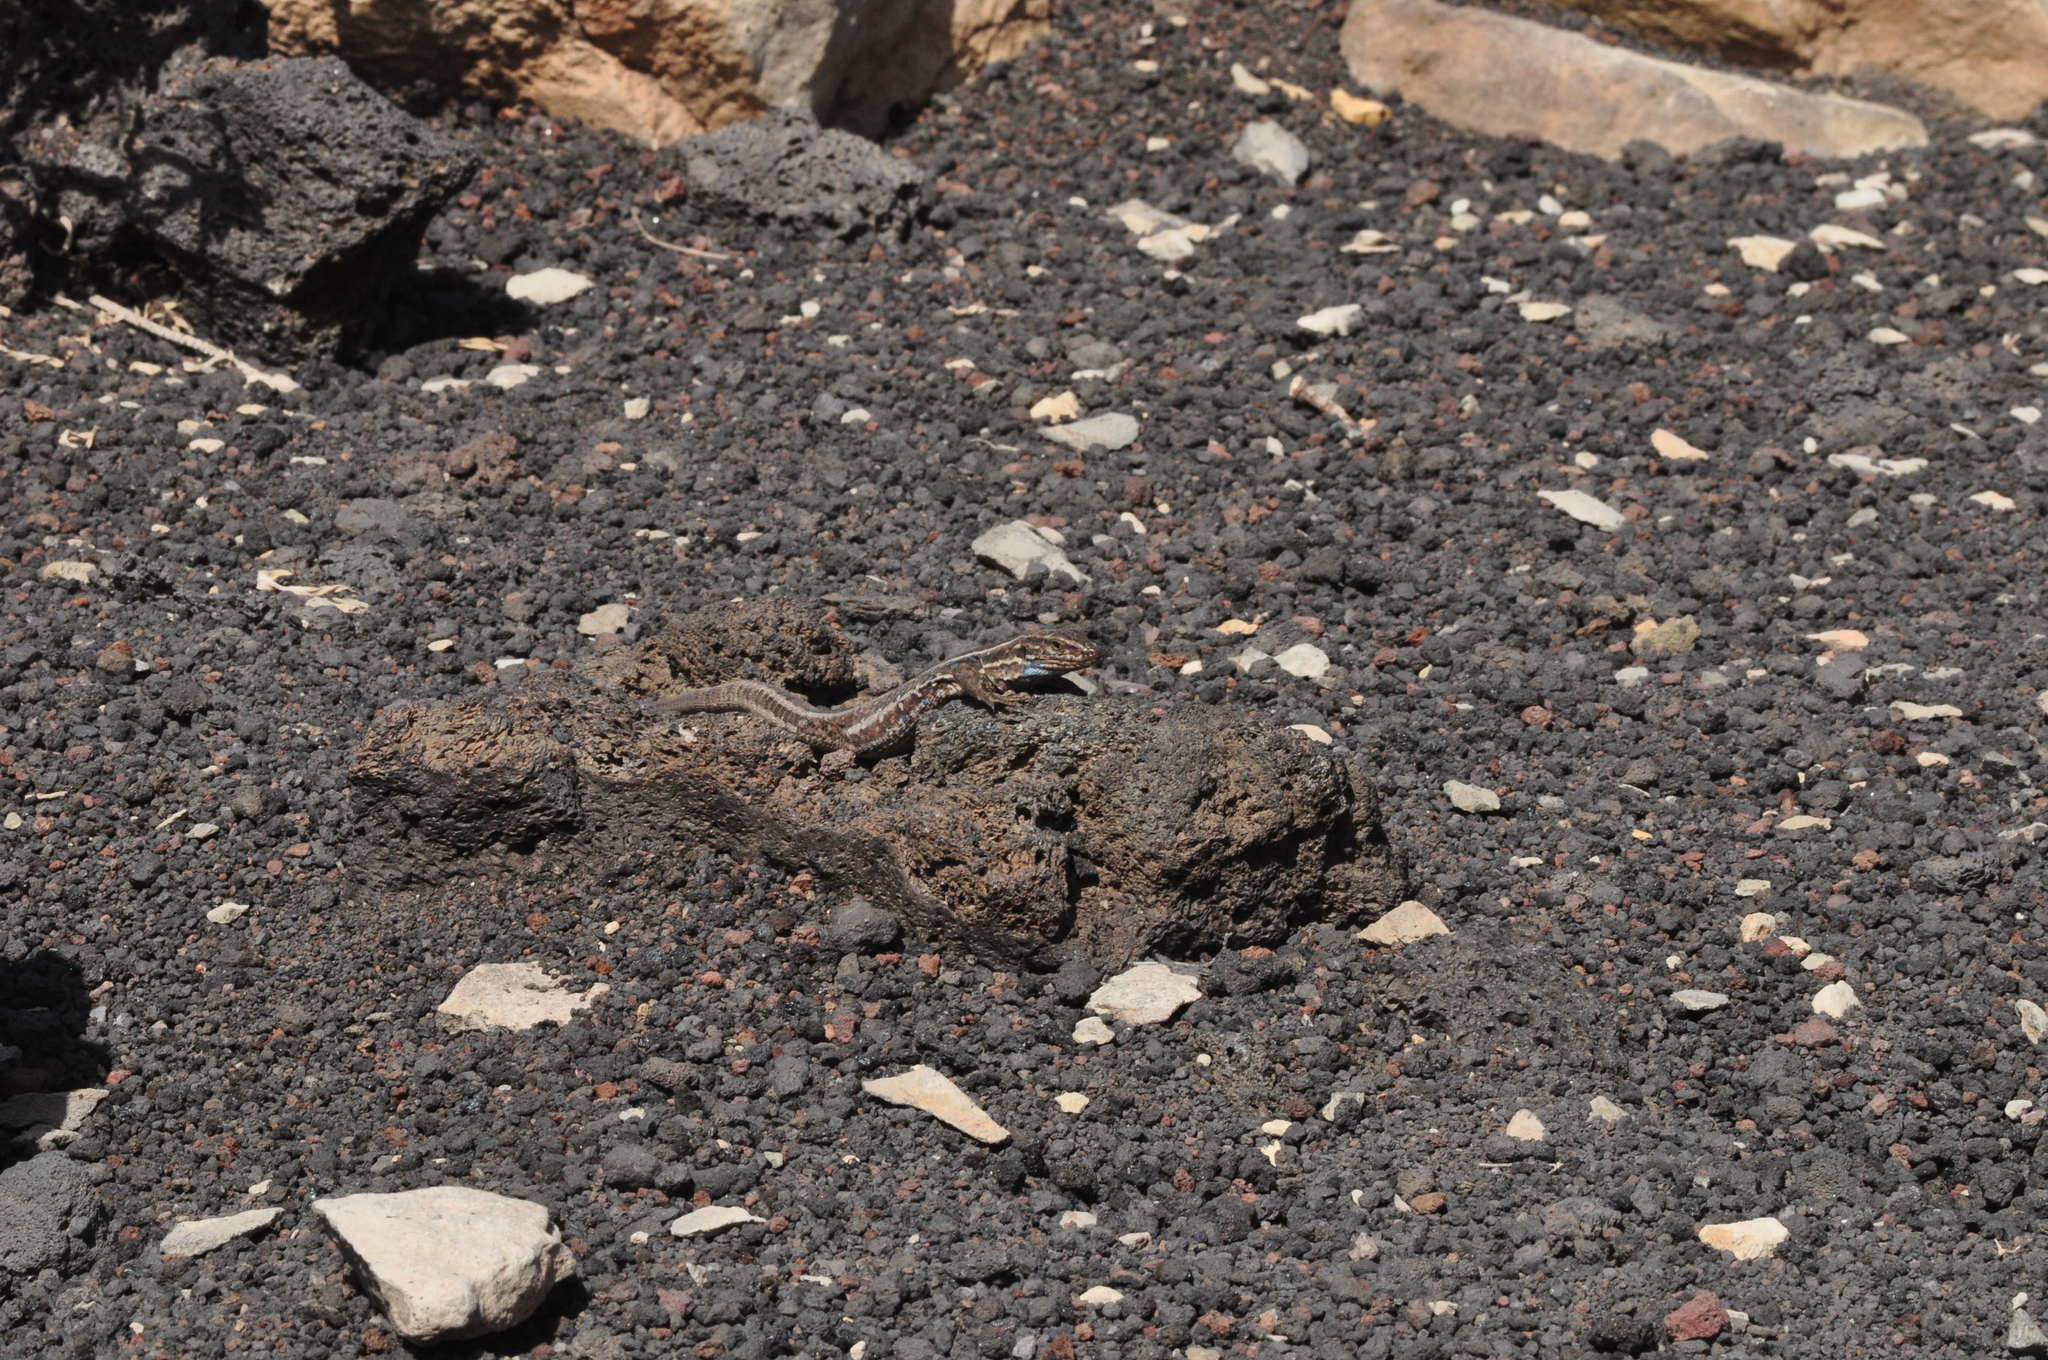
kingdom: Animalia
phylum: Chordata
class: Squamata
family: Lacertidae
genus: Gallotia
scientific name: Gallotia galloti
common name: Gallot's lizard
